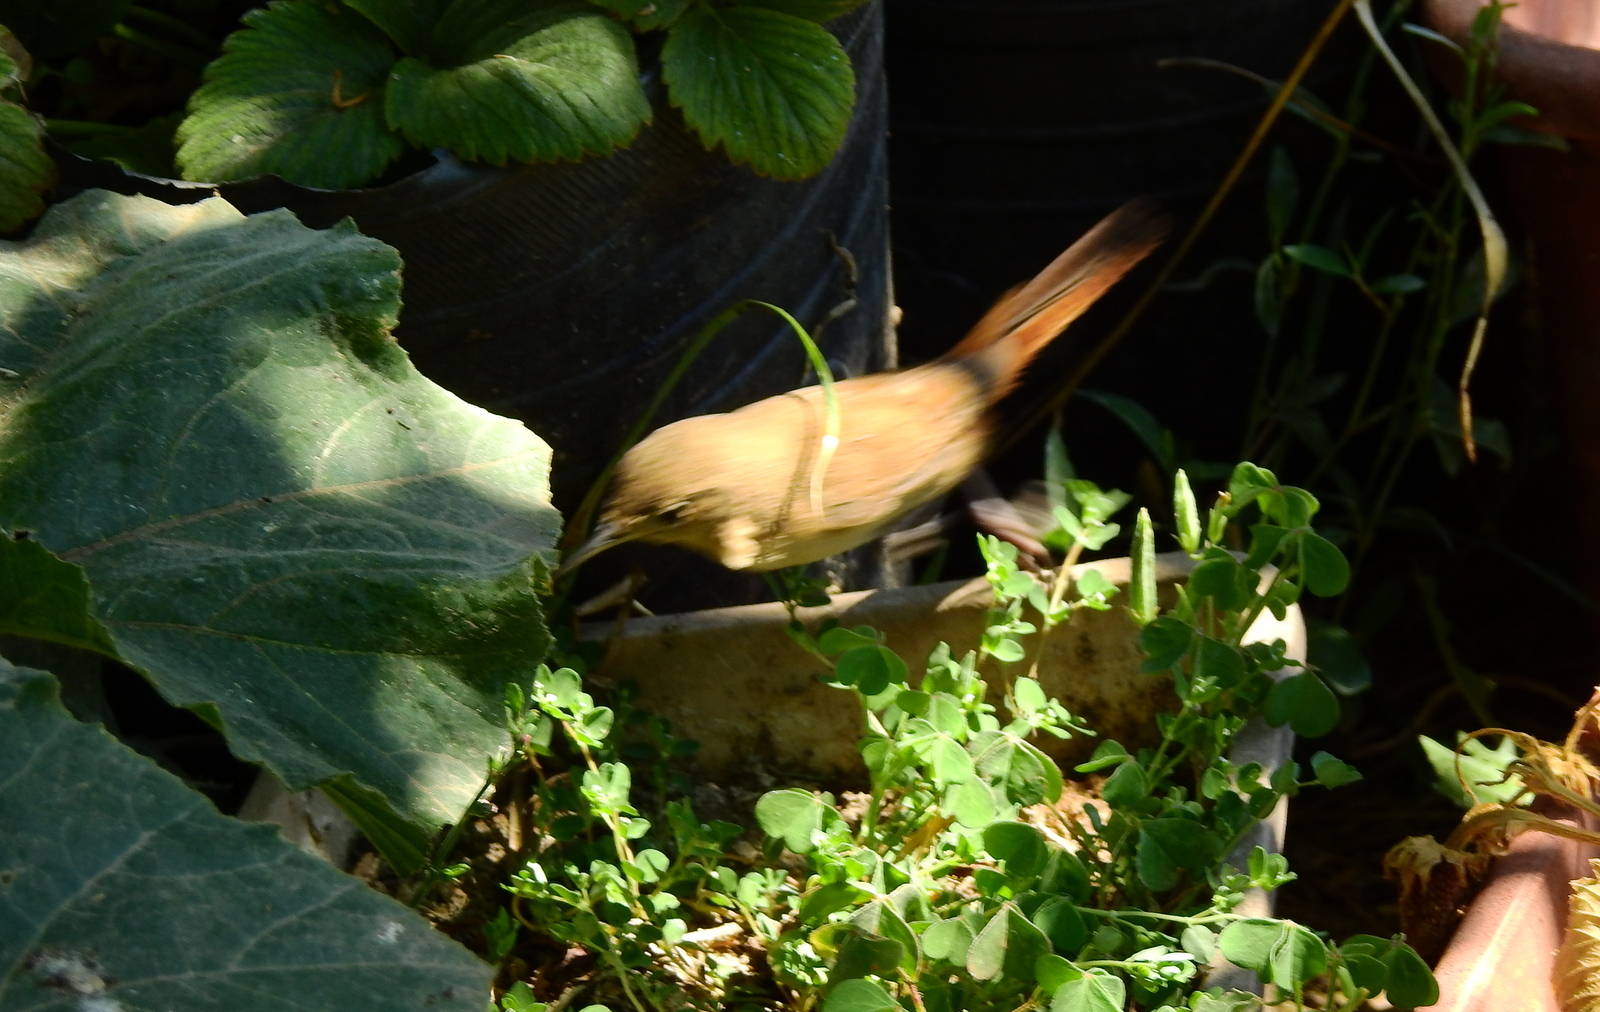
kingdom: Animalia
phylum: Chordata
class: Aves
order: Passeriformes
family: Troglodytidae
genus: Troglodytes
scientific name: Troglodytes aedon
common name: House wren
